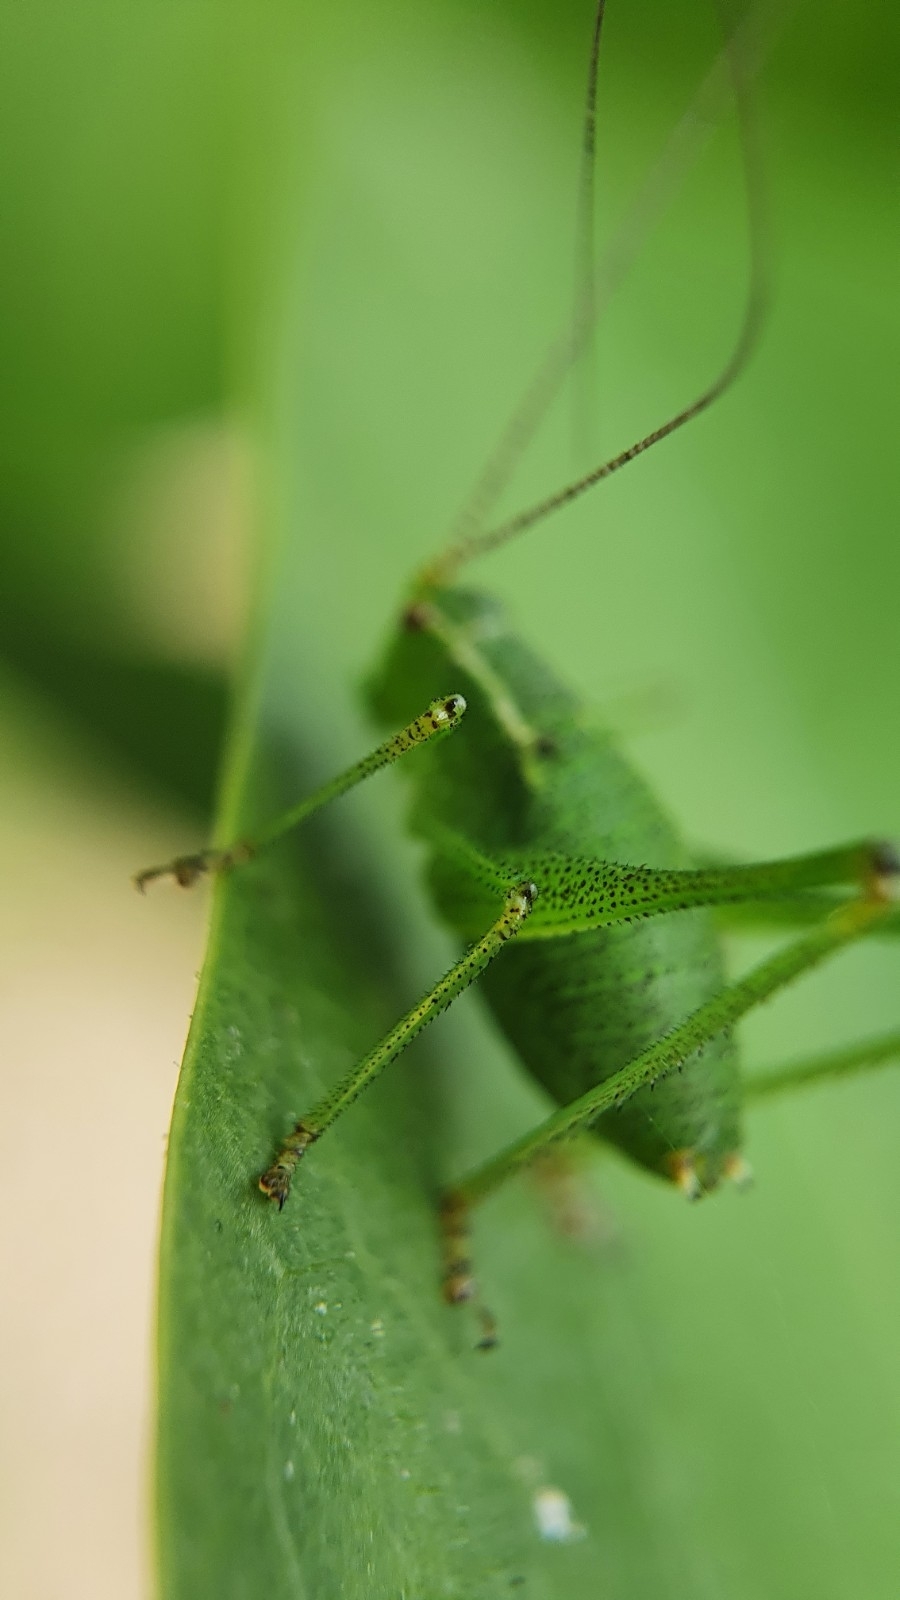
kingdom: Animalia
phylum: Arthropoda
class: Insecta
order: Orthoptera
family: Tettigoniidae
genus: Leptophyes
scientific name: Leptophyes punctatissima
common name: Speckled bush-cricket
